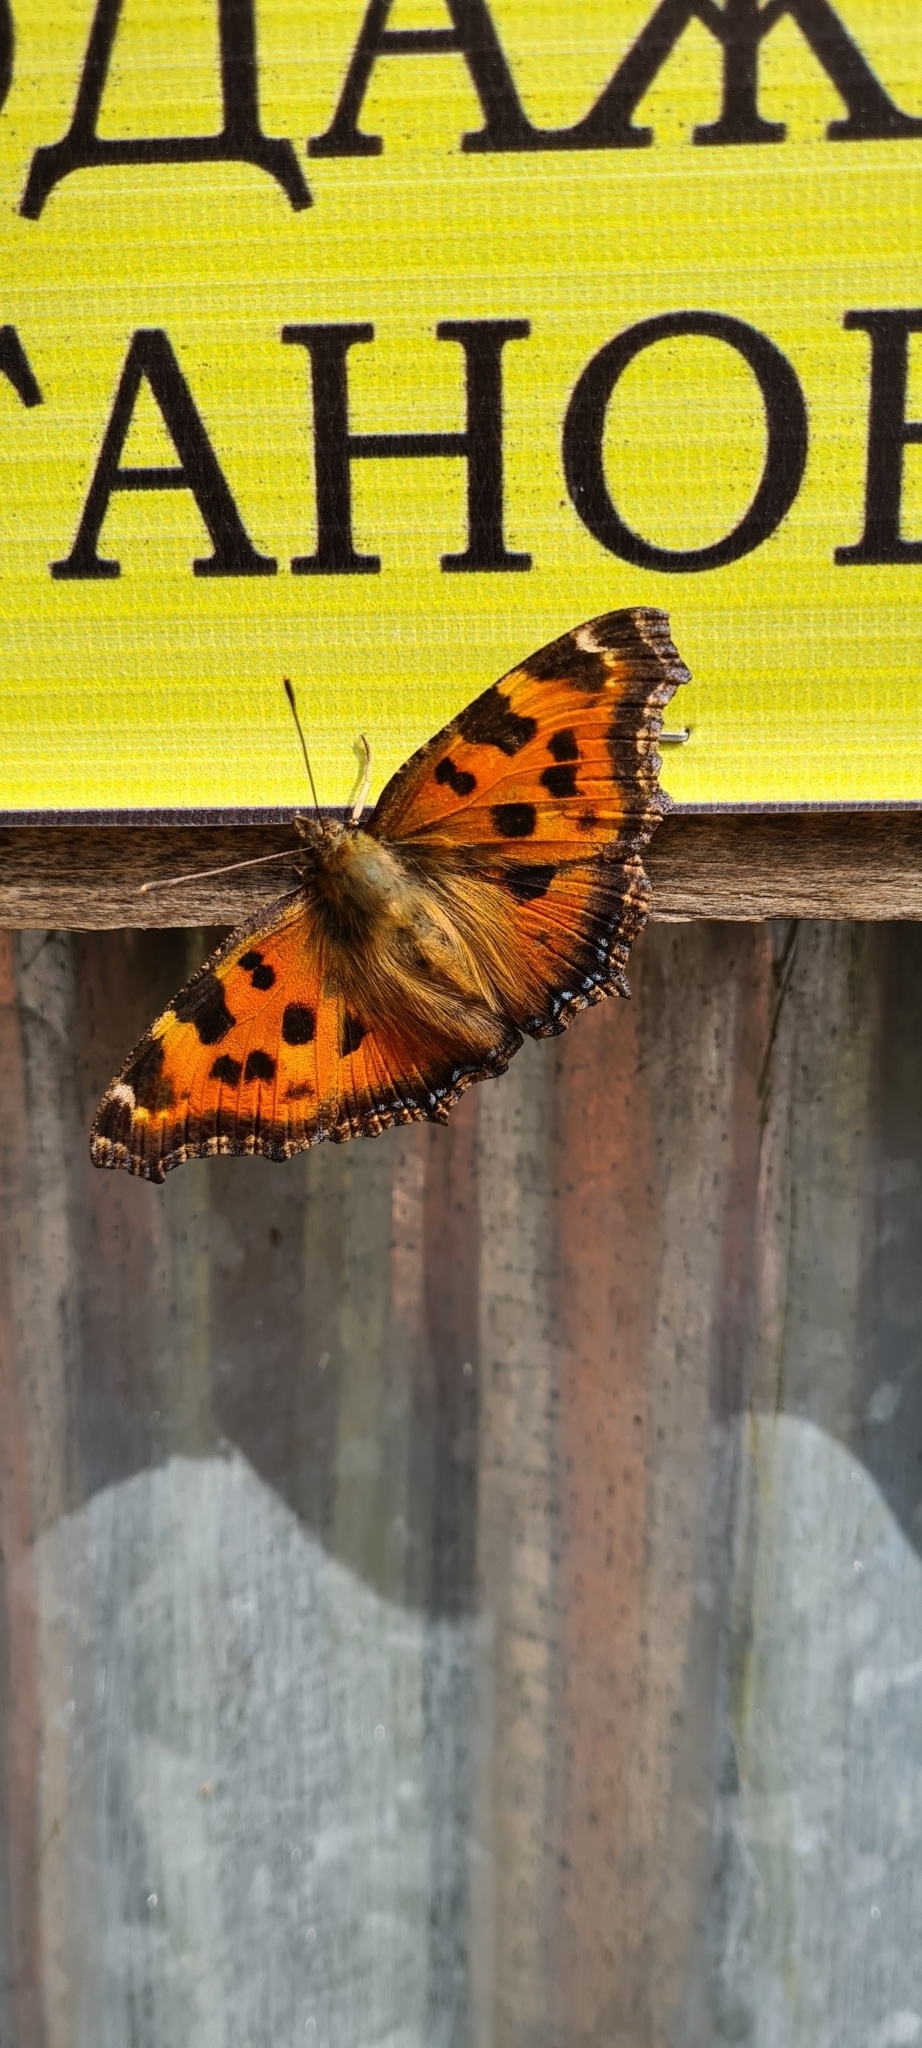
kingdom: Animalia
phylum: Arthropoda
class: Insecta
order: Lepidoptera
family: Nymphalidae
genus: Nymphalis
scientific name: Nymphalis xanthomelas
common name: Scarce tortoiseshell
